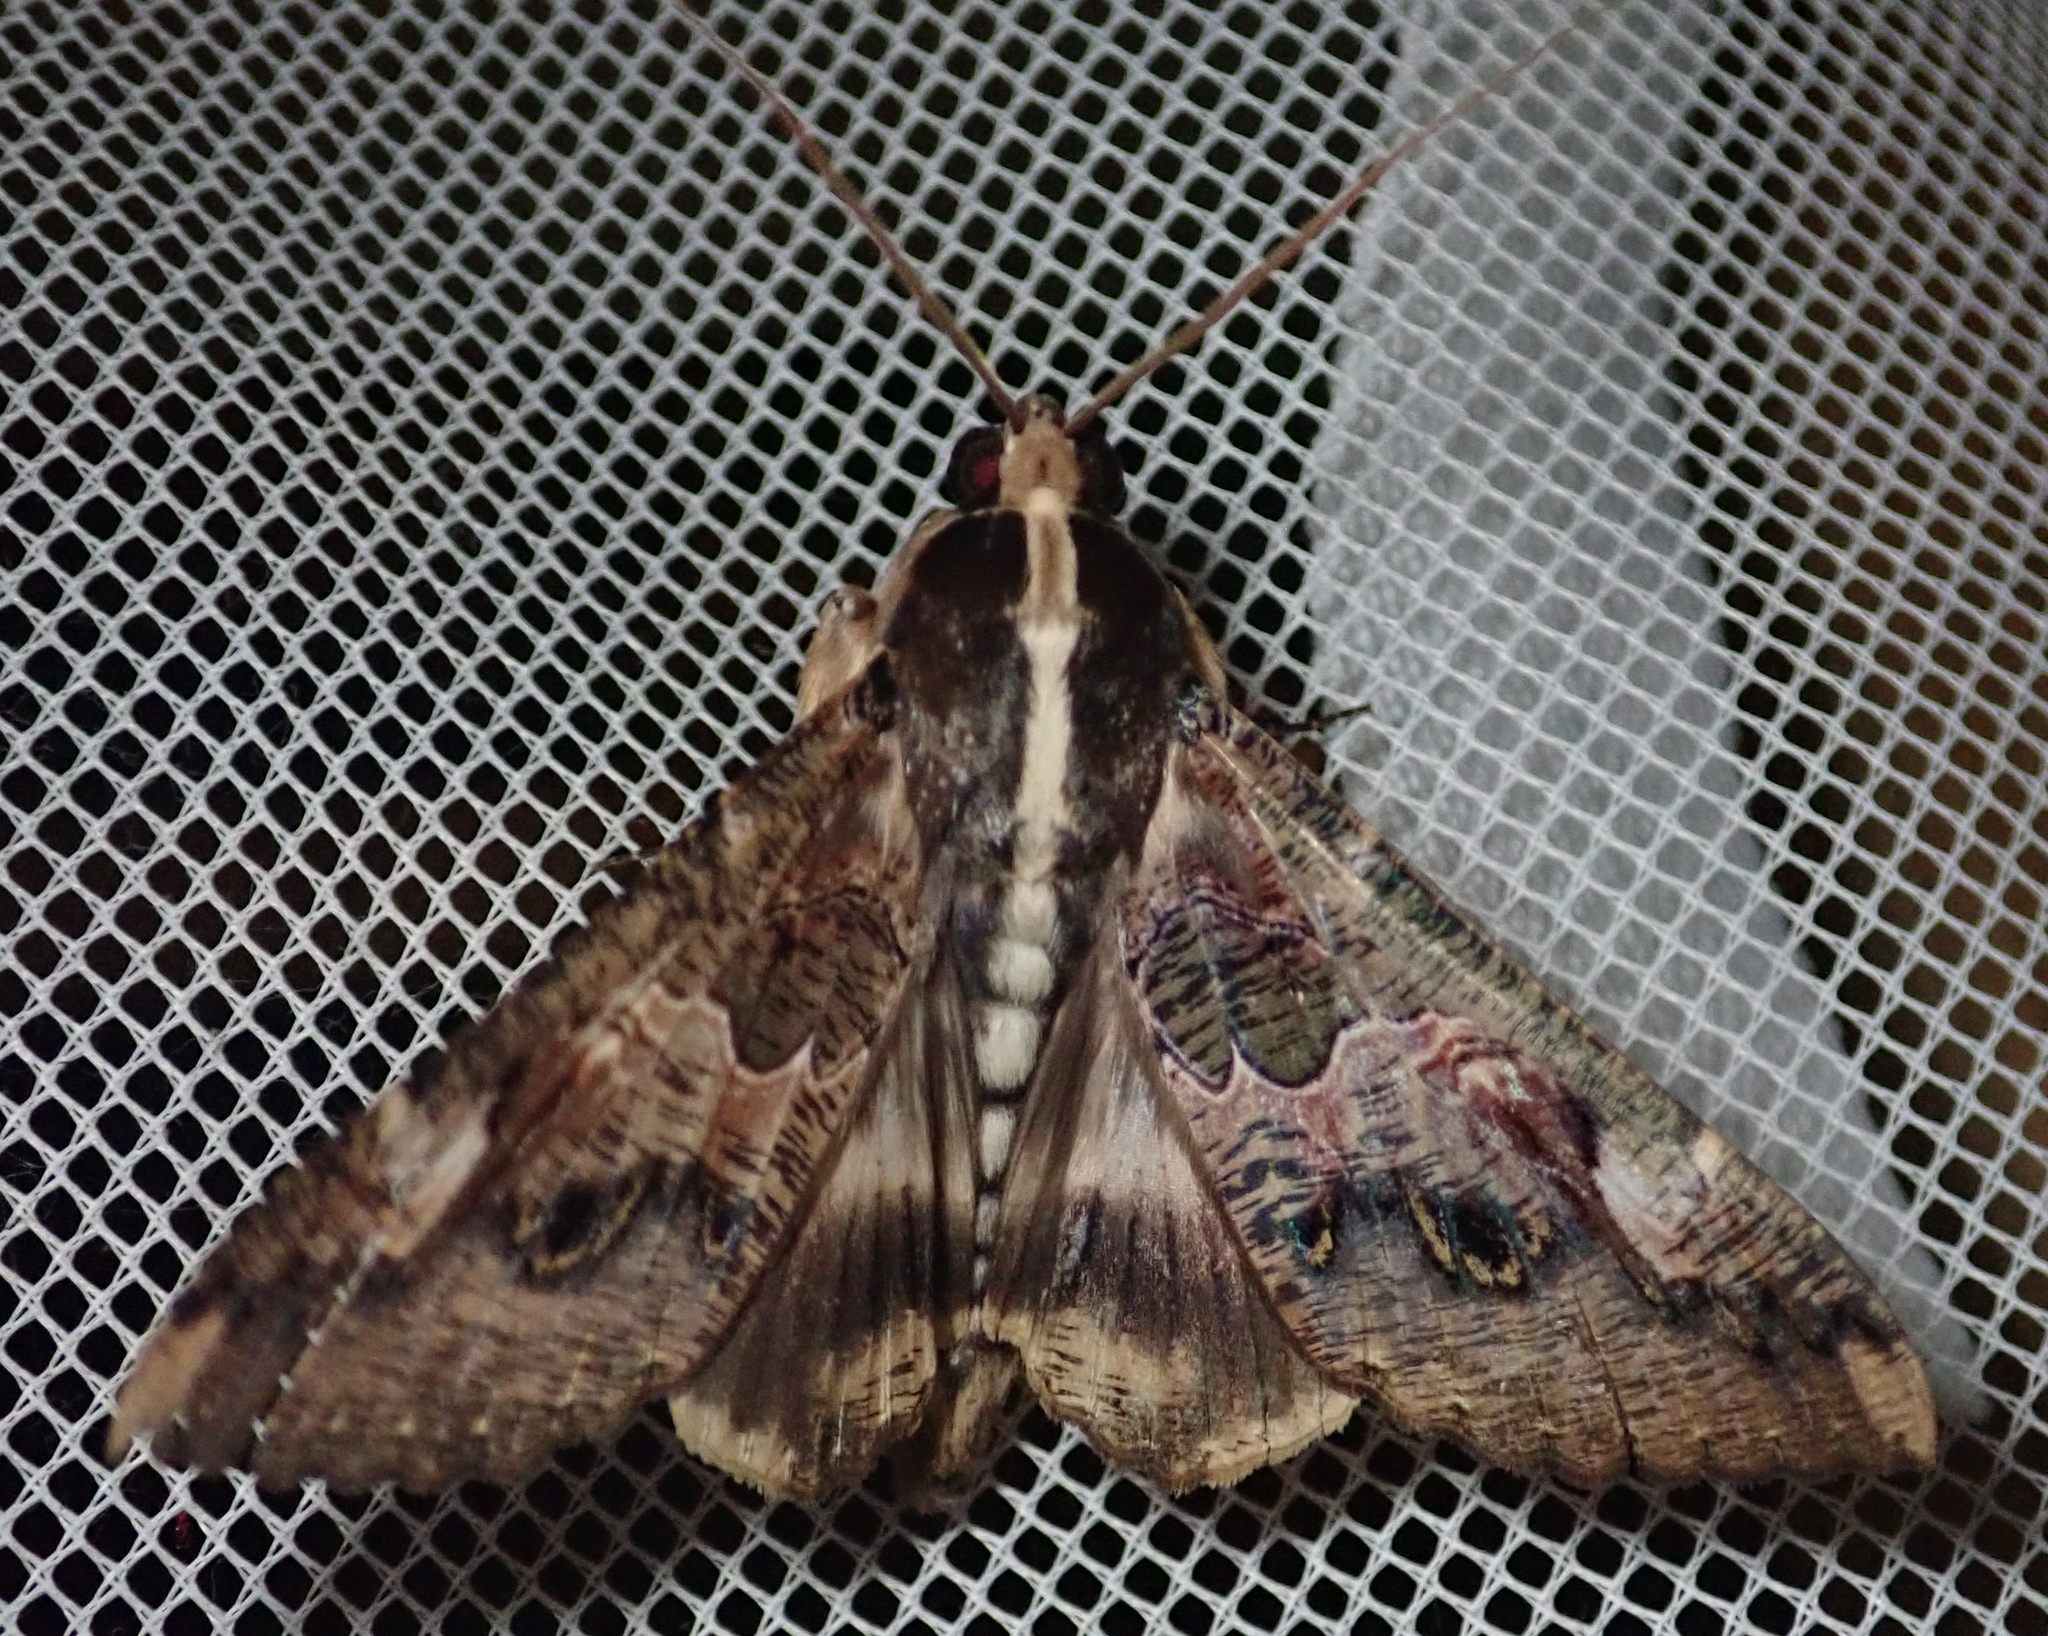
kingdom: Animalia
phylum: Arthropoda
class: Insecta
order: Lepidoptera
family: Erebidae
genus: Sphingomorpha
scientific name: Sphingomorpha chlorea
